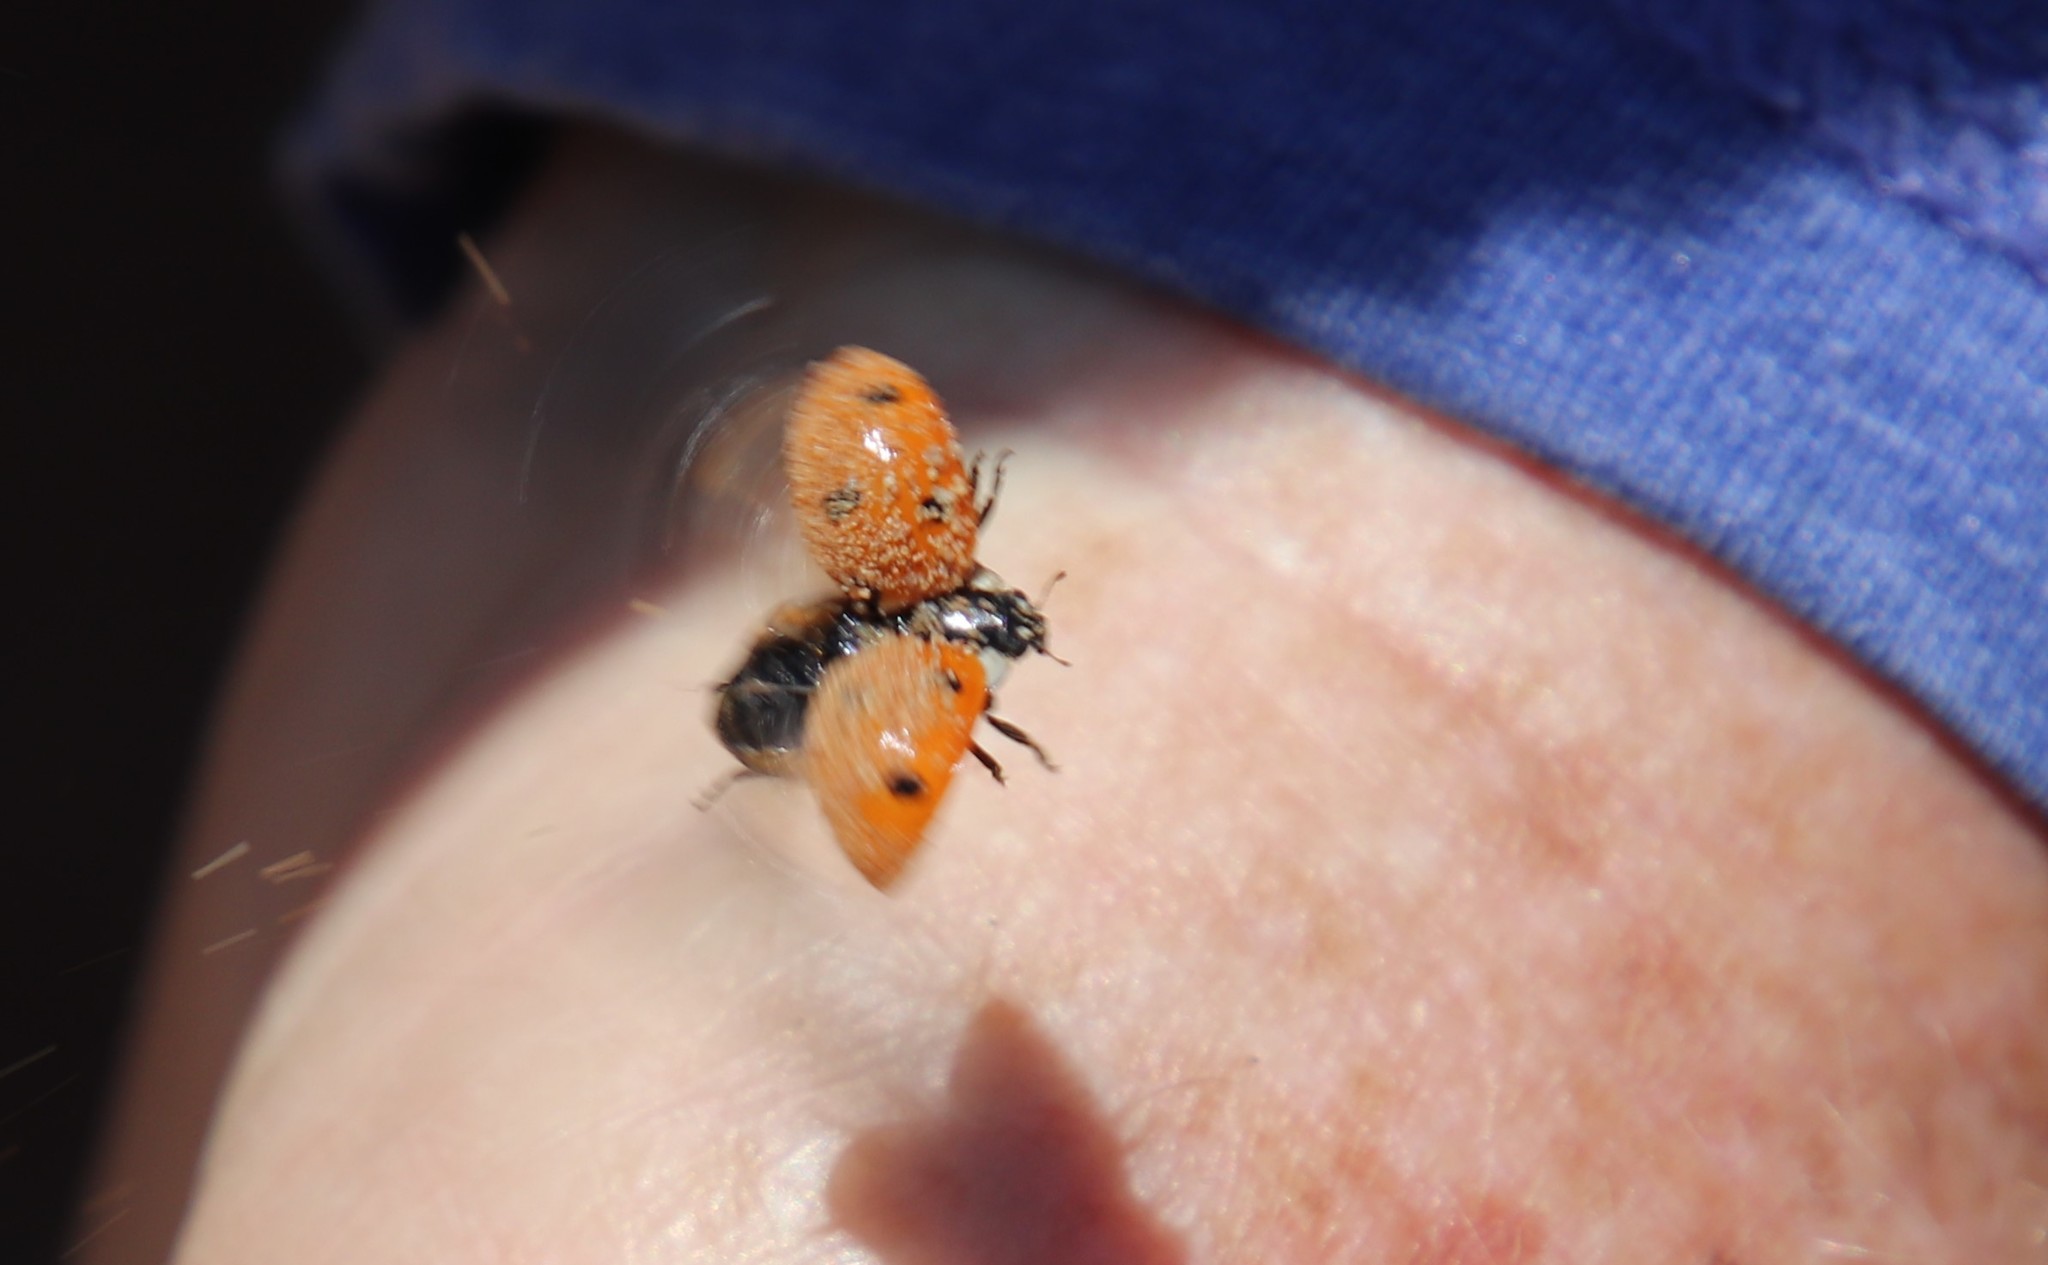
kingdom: Animalia
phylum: Arthropoda
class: Insecta
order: Coleoptera
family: Coccinellidae
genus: Coccinella
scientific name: Coccinella septempunctata
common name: Sevenspotted lady beetle
